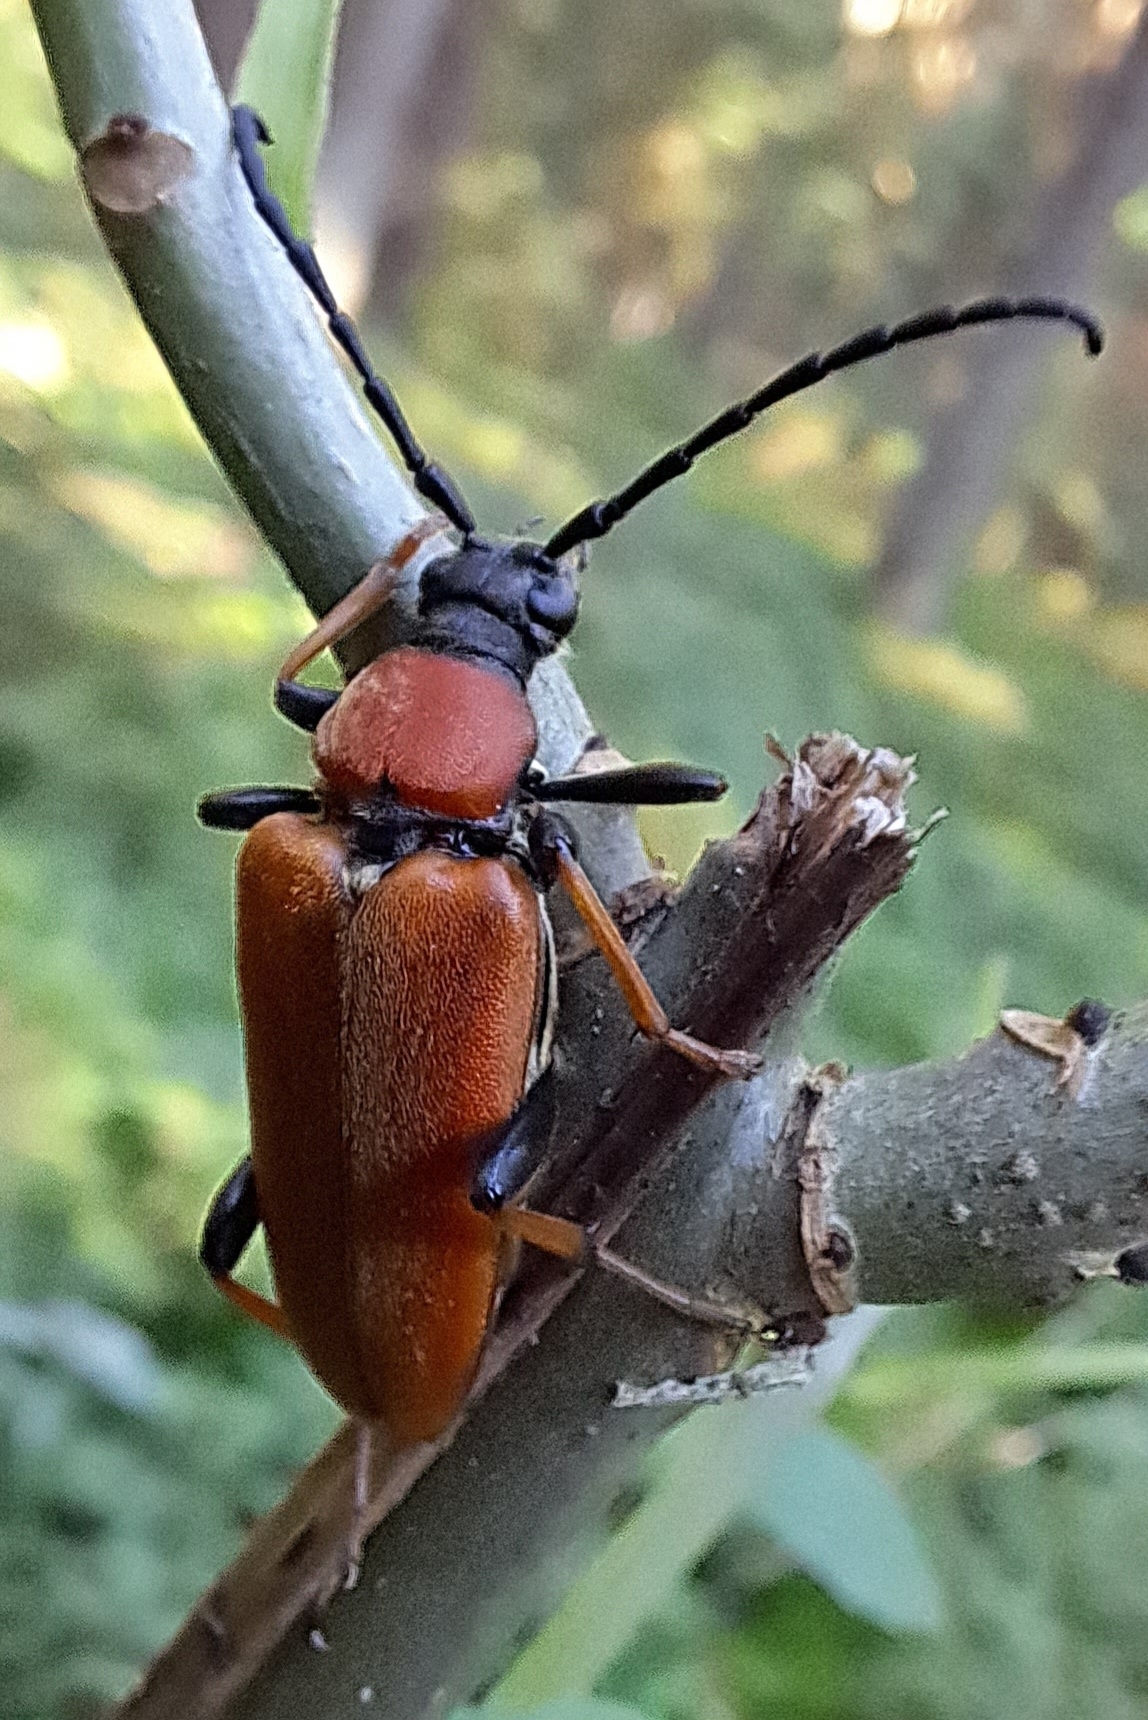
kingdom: Animalia
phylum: Arthropoda
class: Insecta
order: Coleoptera
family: Cerambycidae
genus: Stictoleptura
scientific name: Stictoleptura rubra
